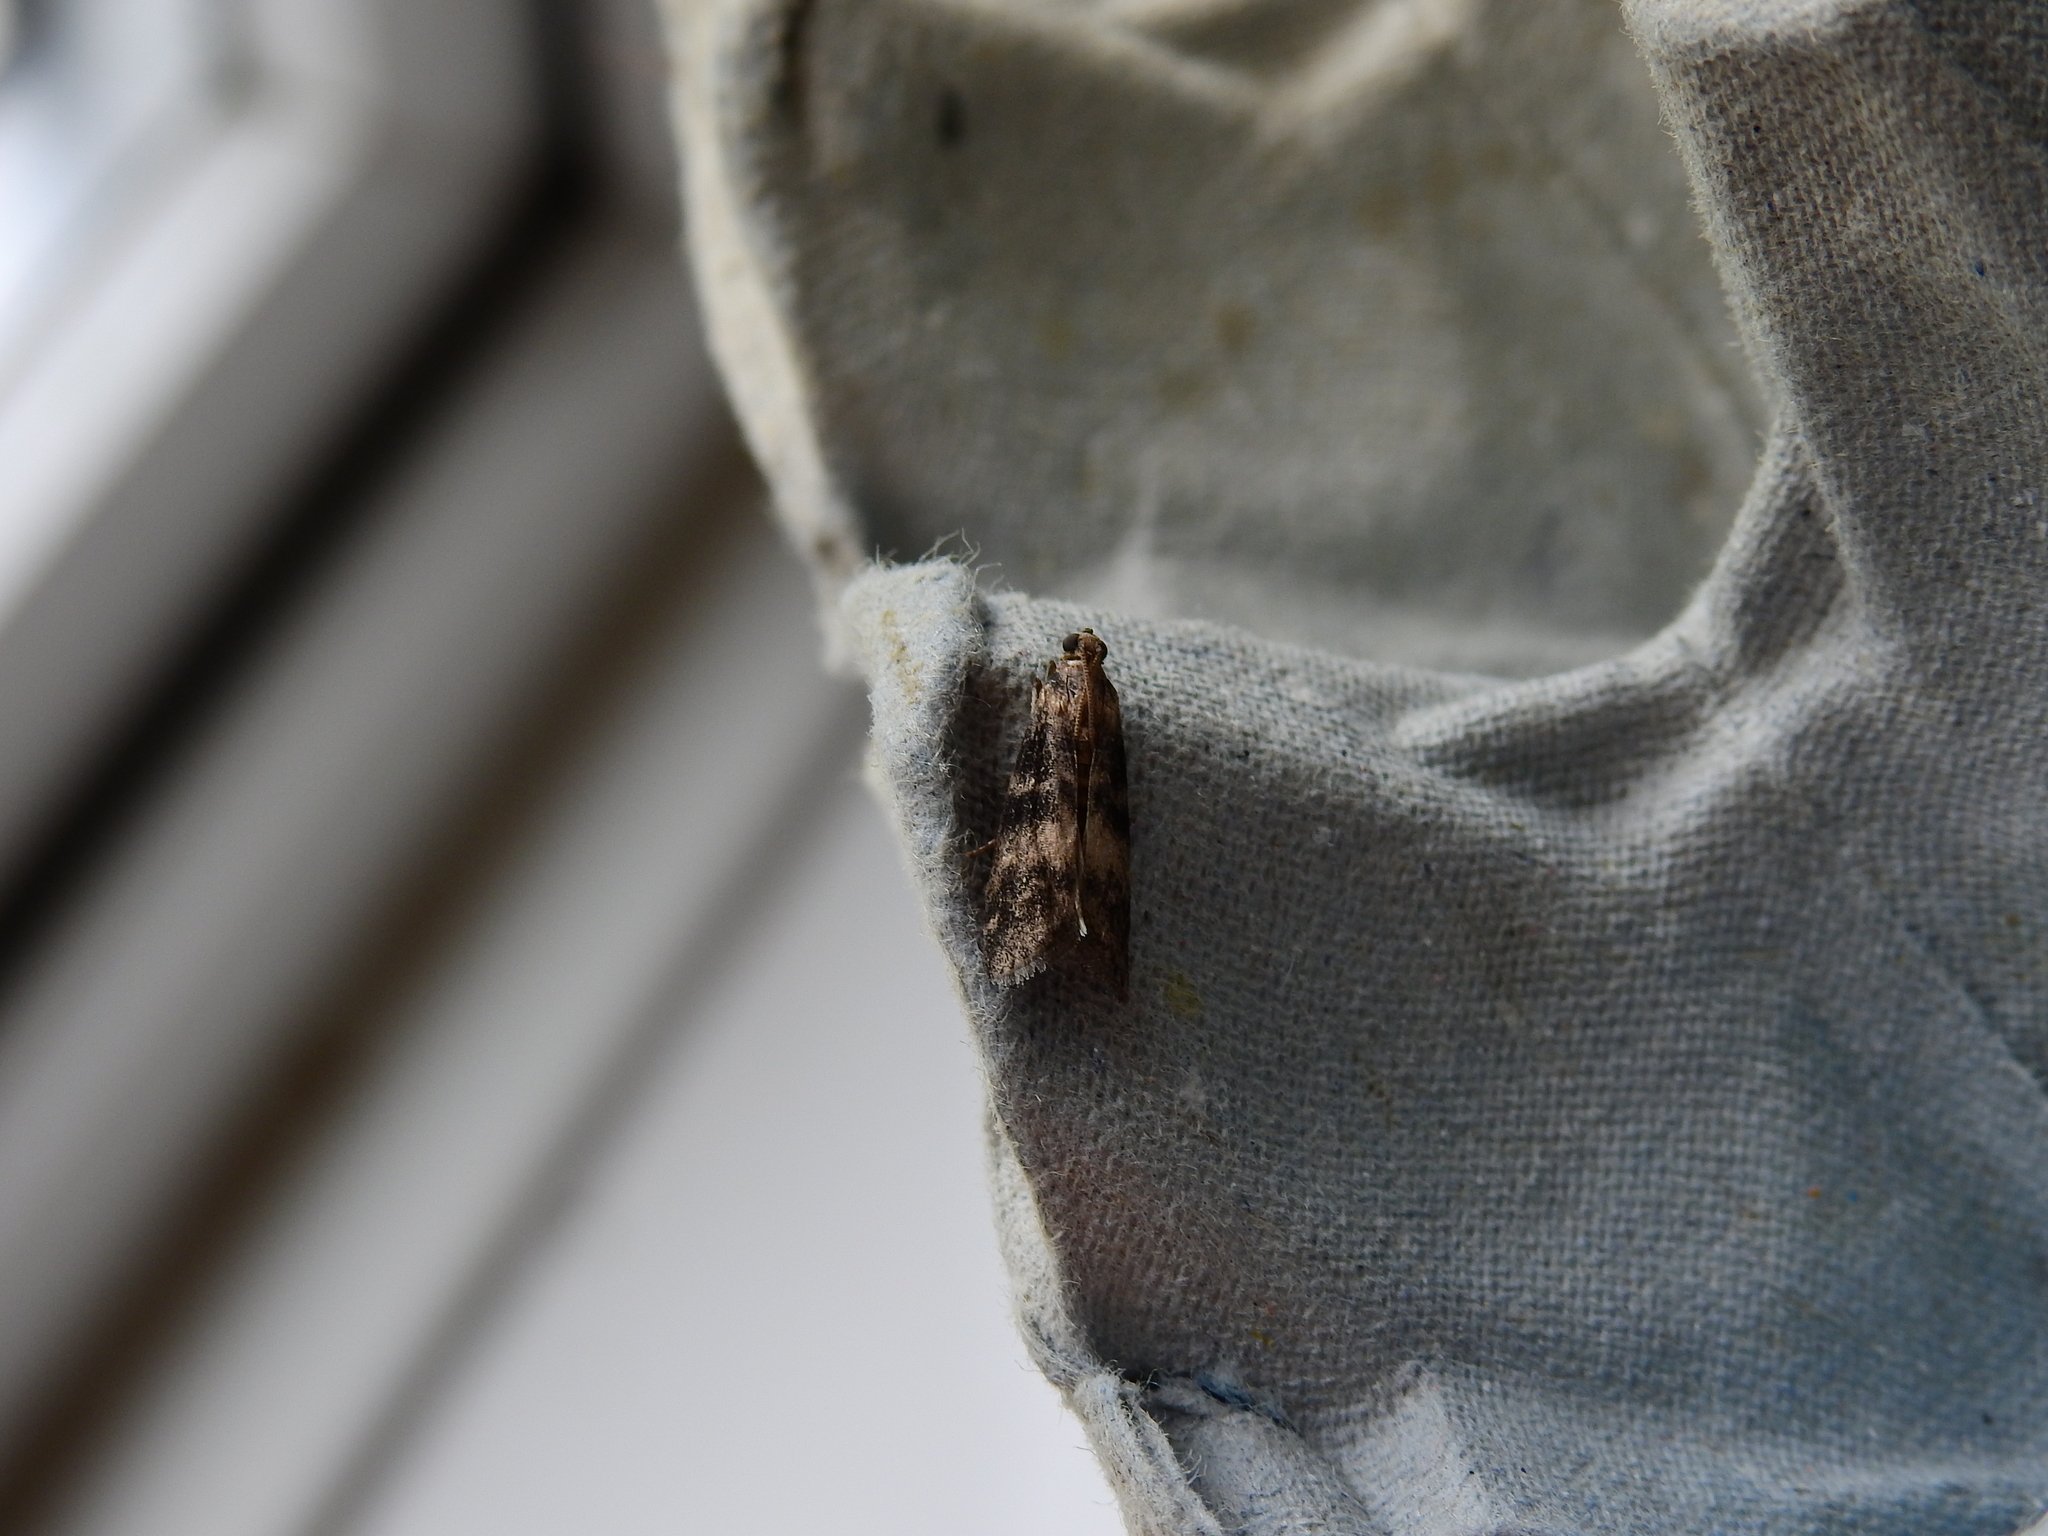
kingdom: Animalia
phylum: Arthropoda
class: Insecta
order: Lepidoptera
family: Pyralidae
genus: Euzophera
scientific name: Euzophera pinguis
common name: Ash-bark knot-horn
